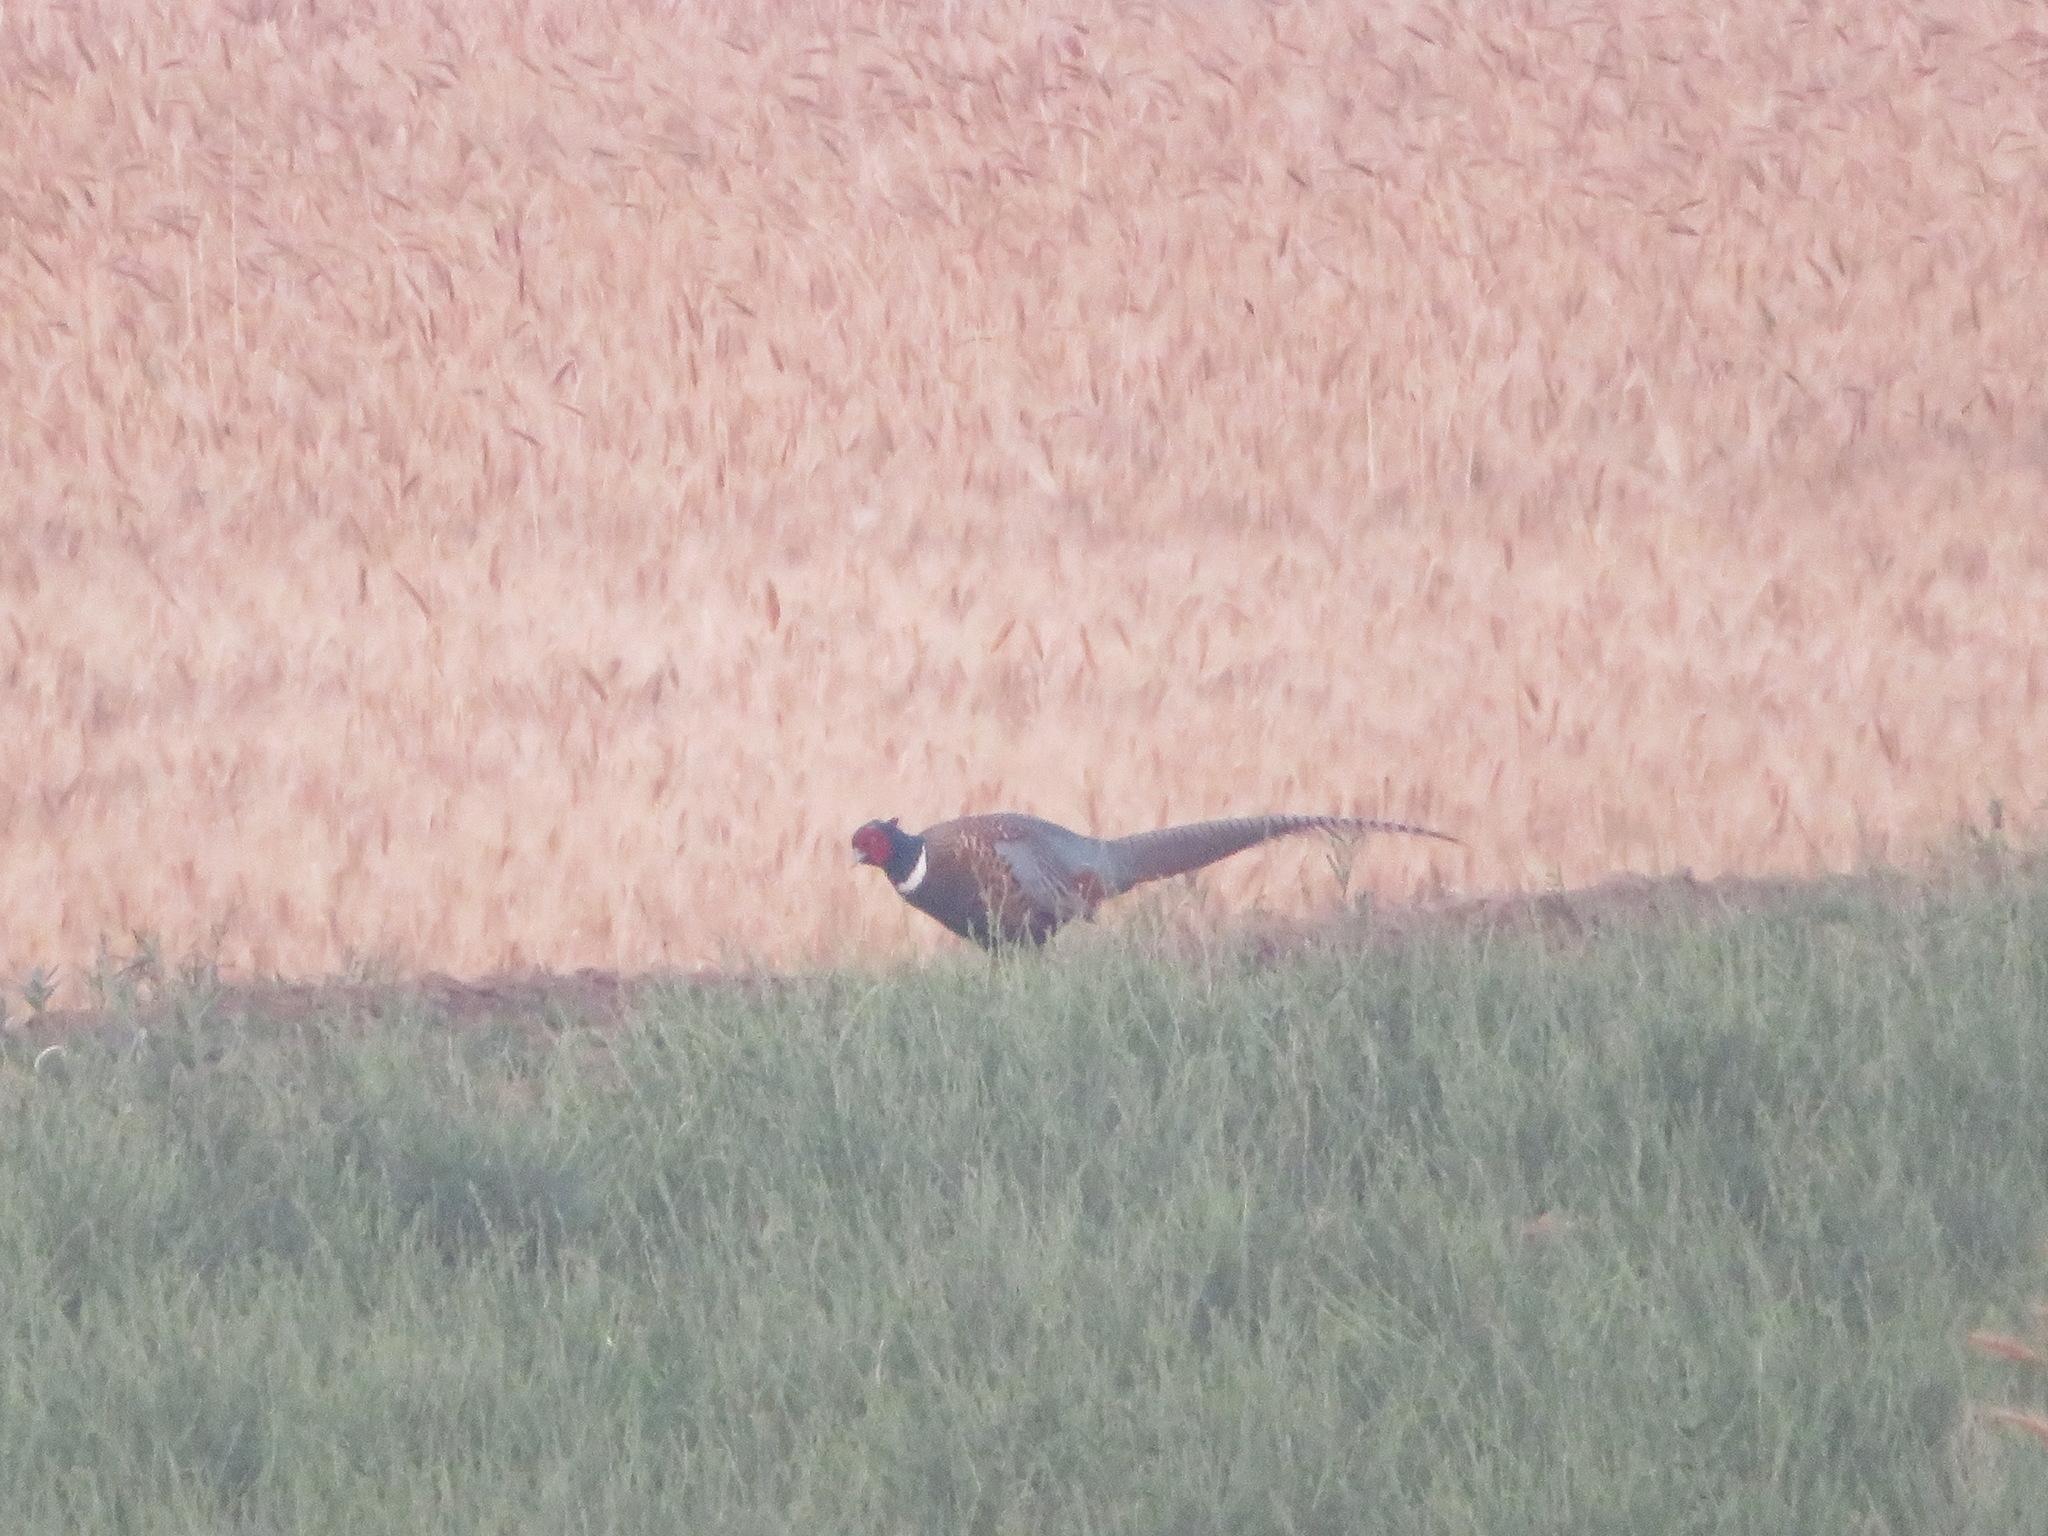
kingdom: Animalia
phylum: Chordata
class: Aves
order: Galliformes
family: Phasianidae
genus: Phasianus
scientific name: Phasianus colchicus
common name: Common pheasant
